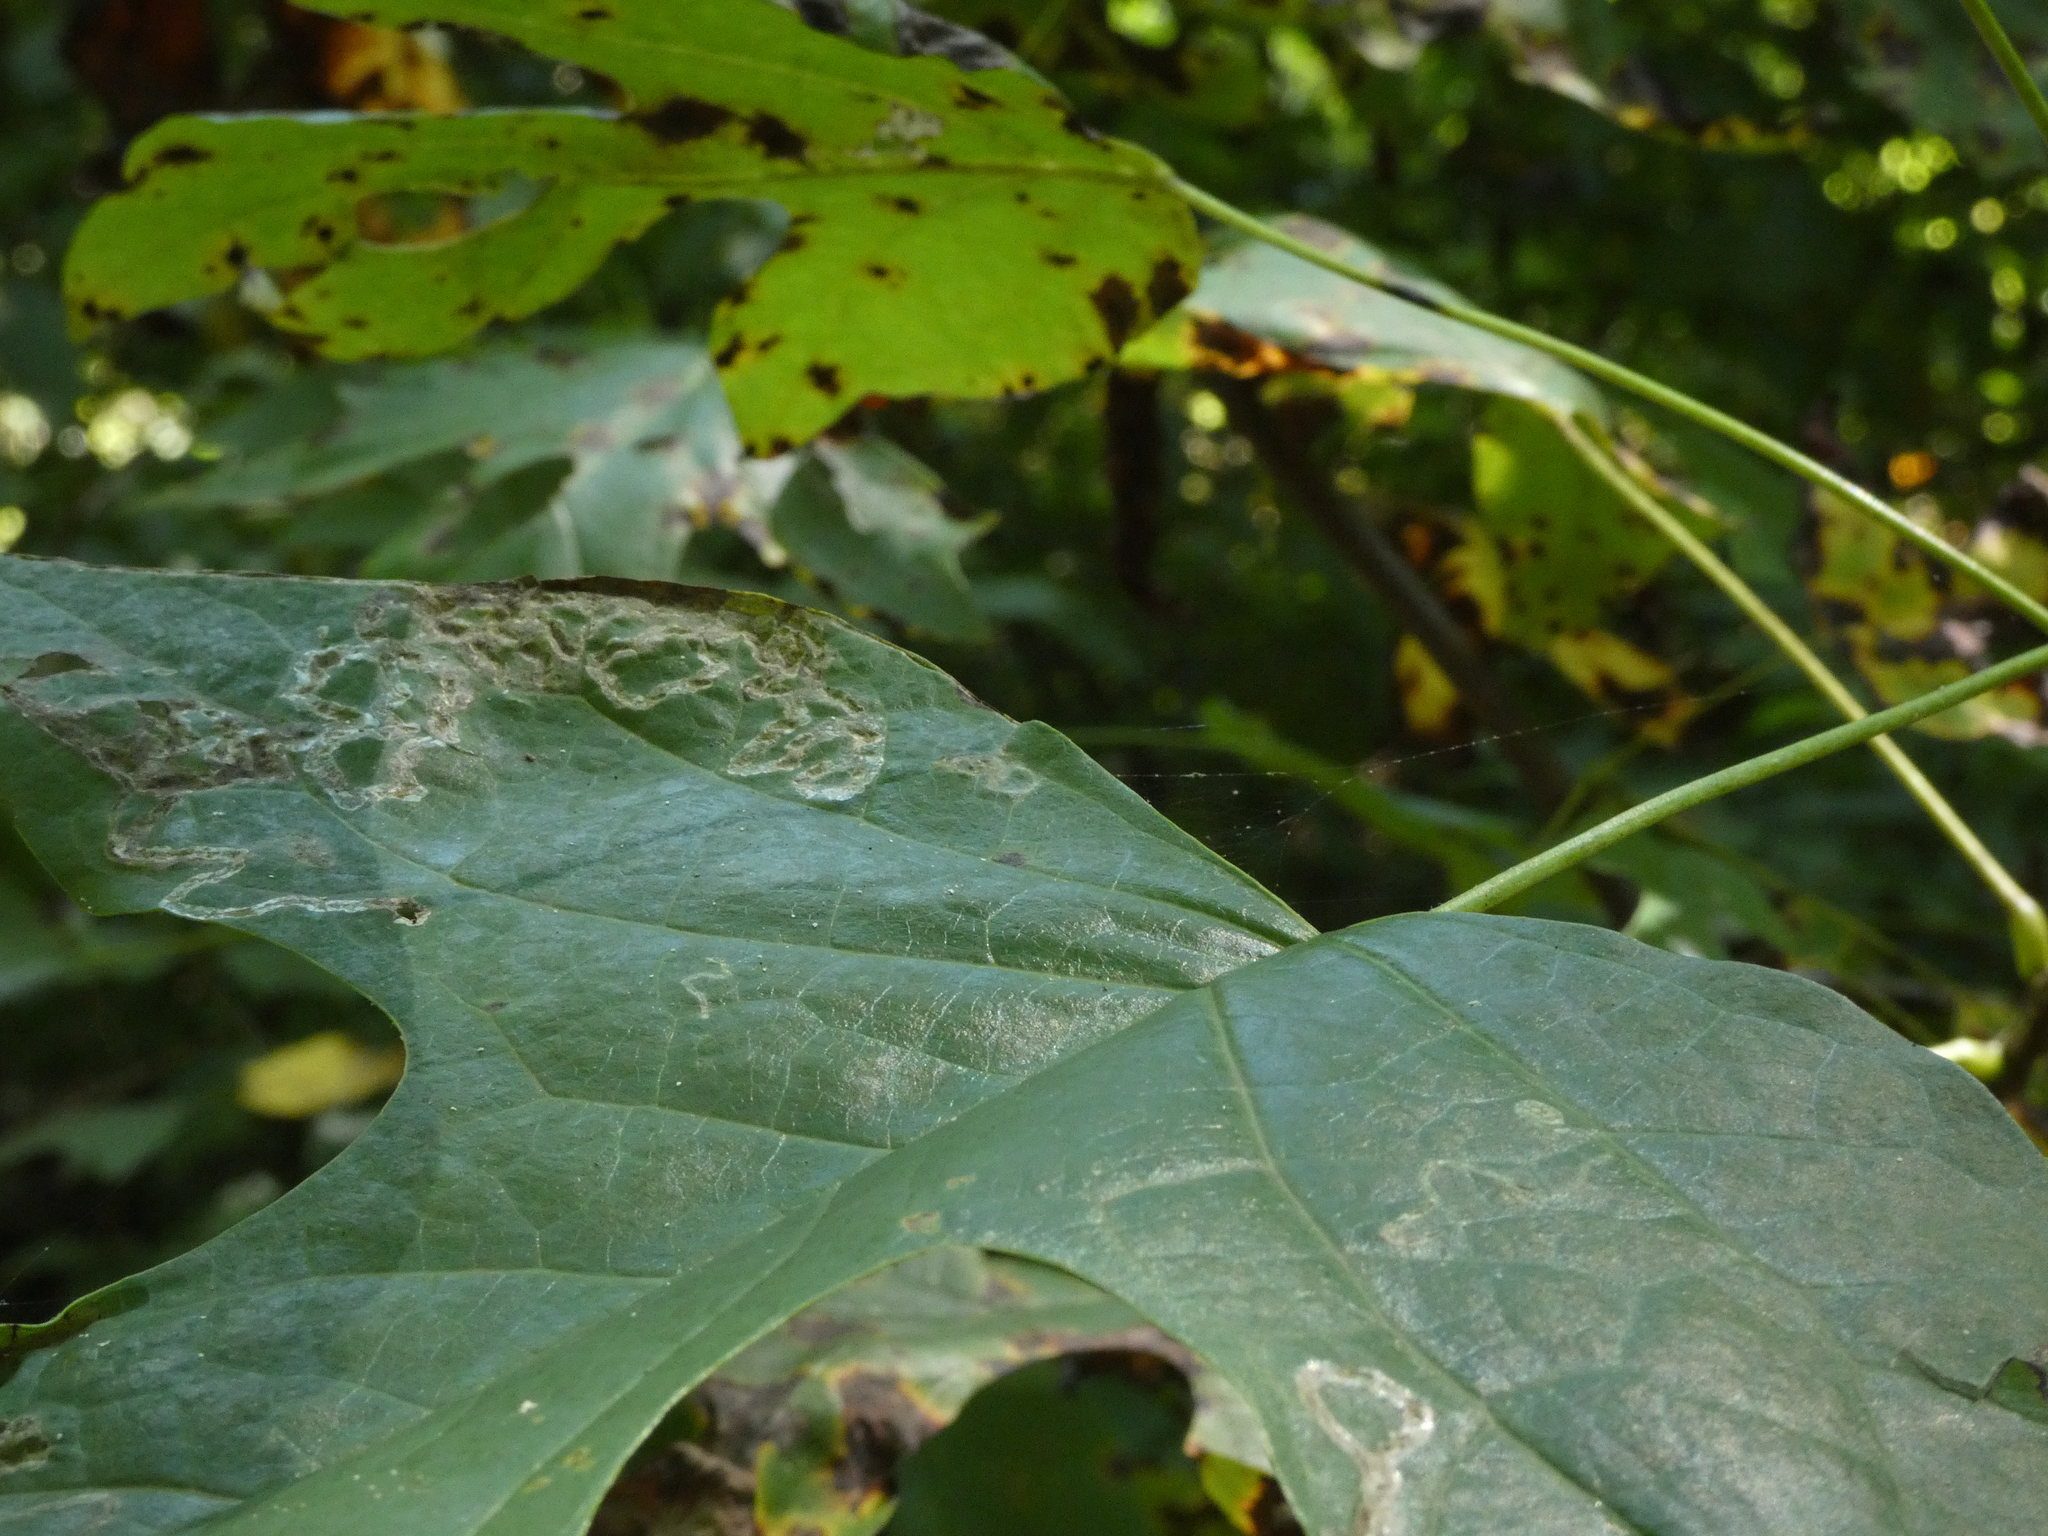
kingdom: Animalia
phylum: Arthropoda
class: Insecta
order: Lepidoptera
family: Gracillariidae
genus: Phyllocnistis
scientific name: Phyllocnistis liriodendronella
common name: Tulip tree leaf miner
